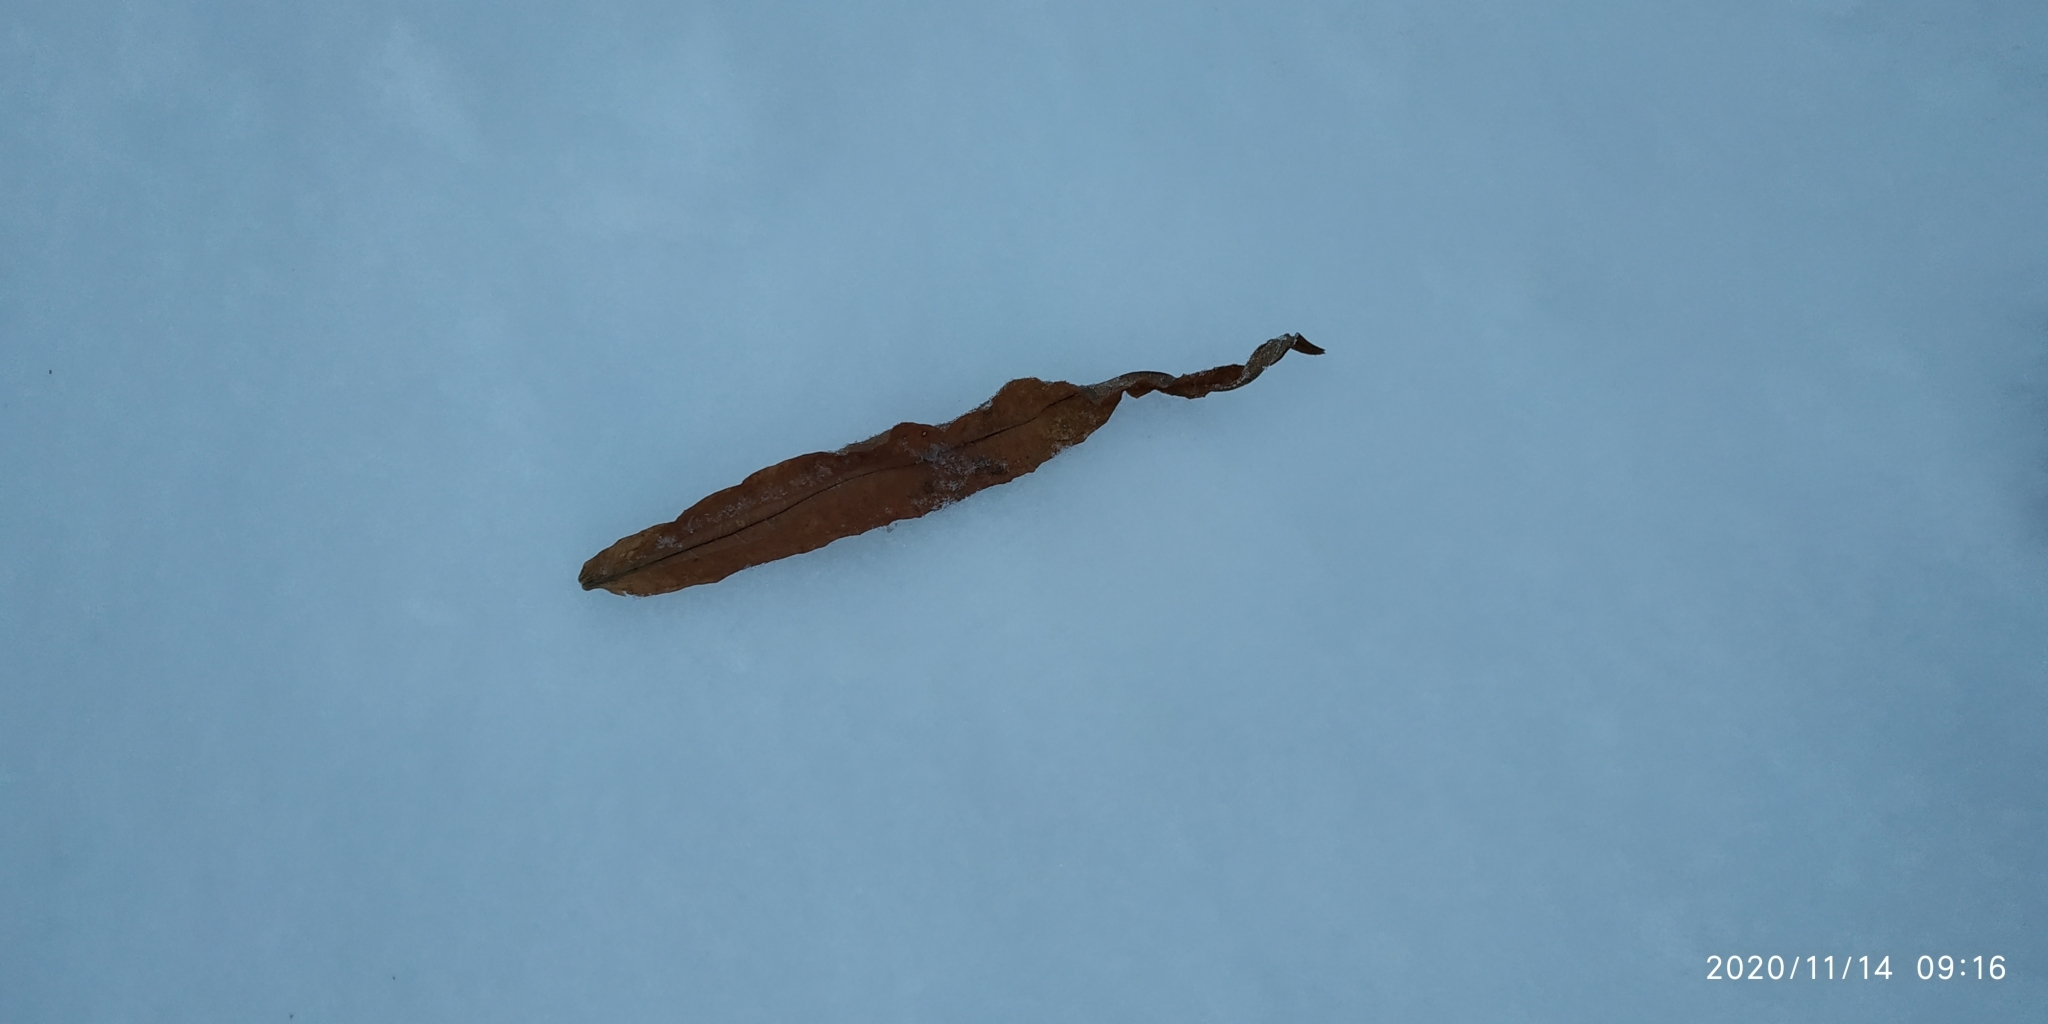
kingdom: Plantae
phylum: Tracheophyta
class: Magnoliopsida
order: Myrtales
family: Onagraceae
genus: Chamaenerion
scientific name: Chamaenerion angustifolium
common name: Fireweed
